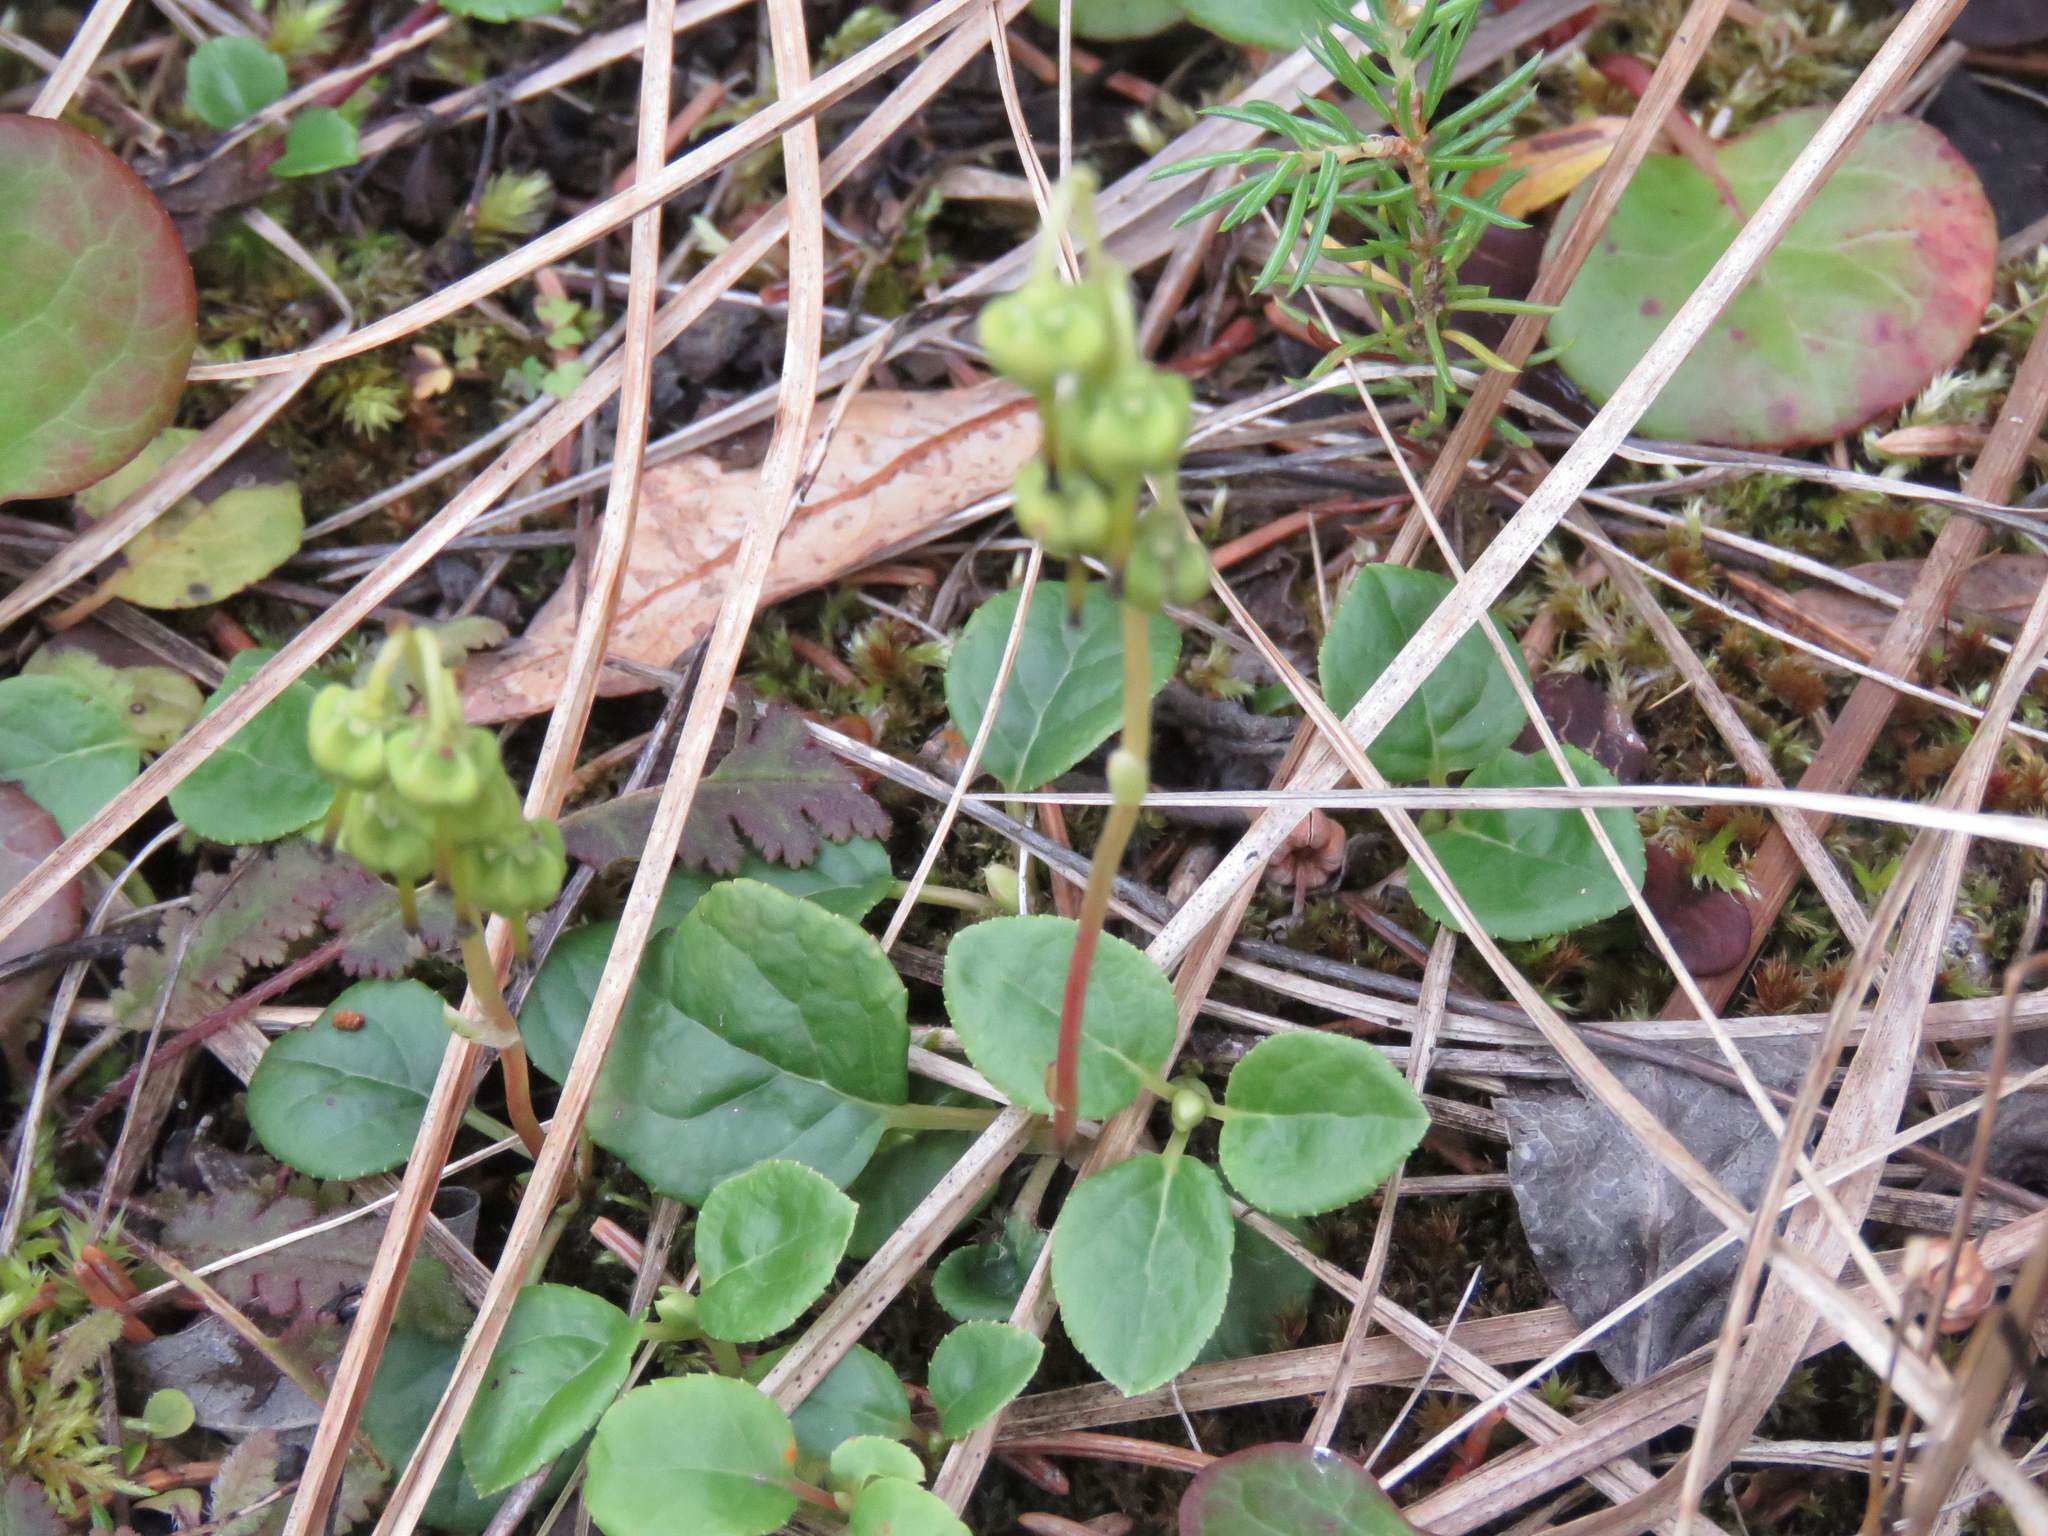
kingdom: Plantae
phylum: Tracheophyta
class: Magnoliopsida
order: Ericales
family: Ericaceae
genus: Orthilia
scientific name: Orthilia secunda
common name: One-sided orthilia
